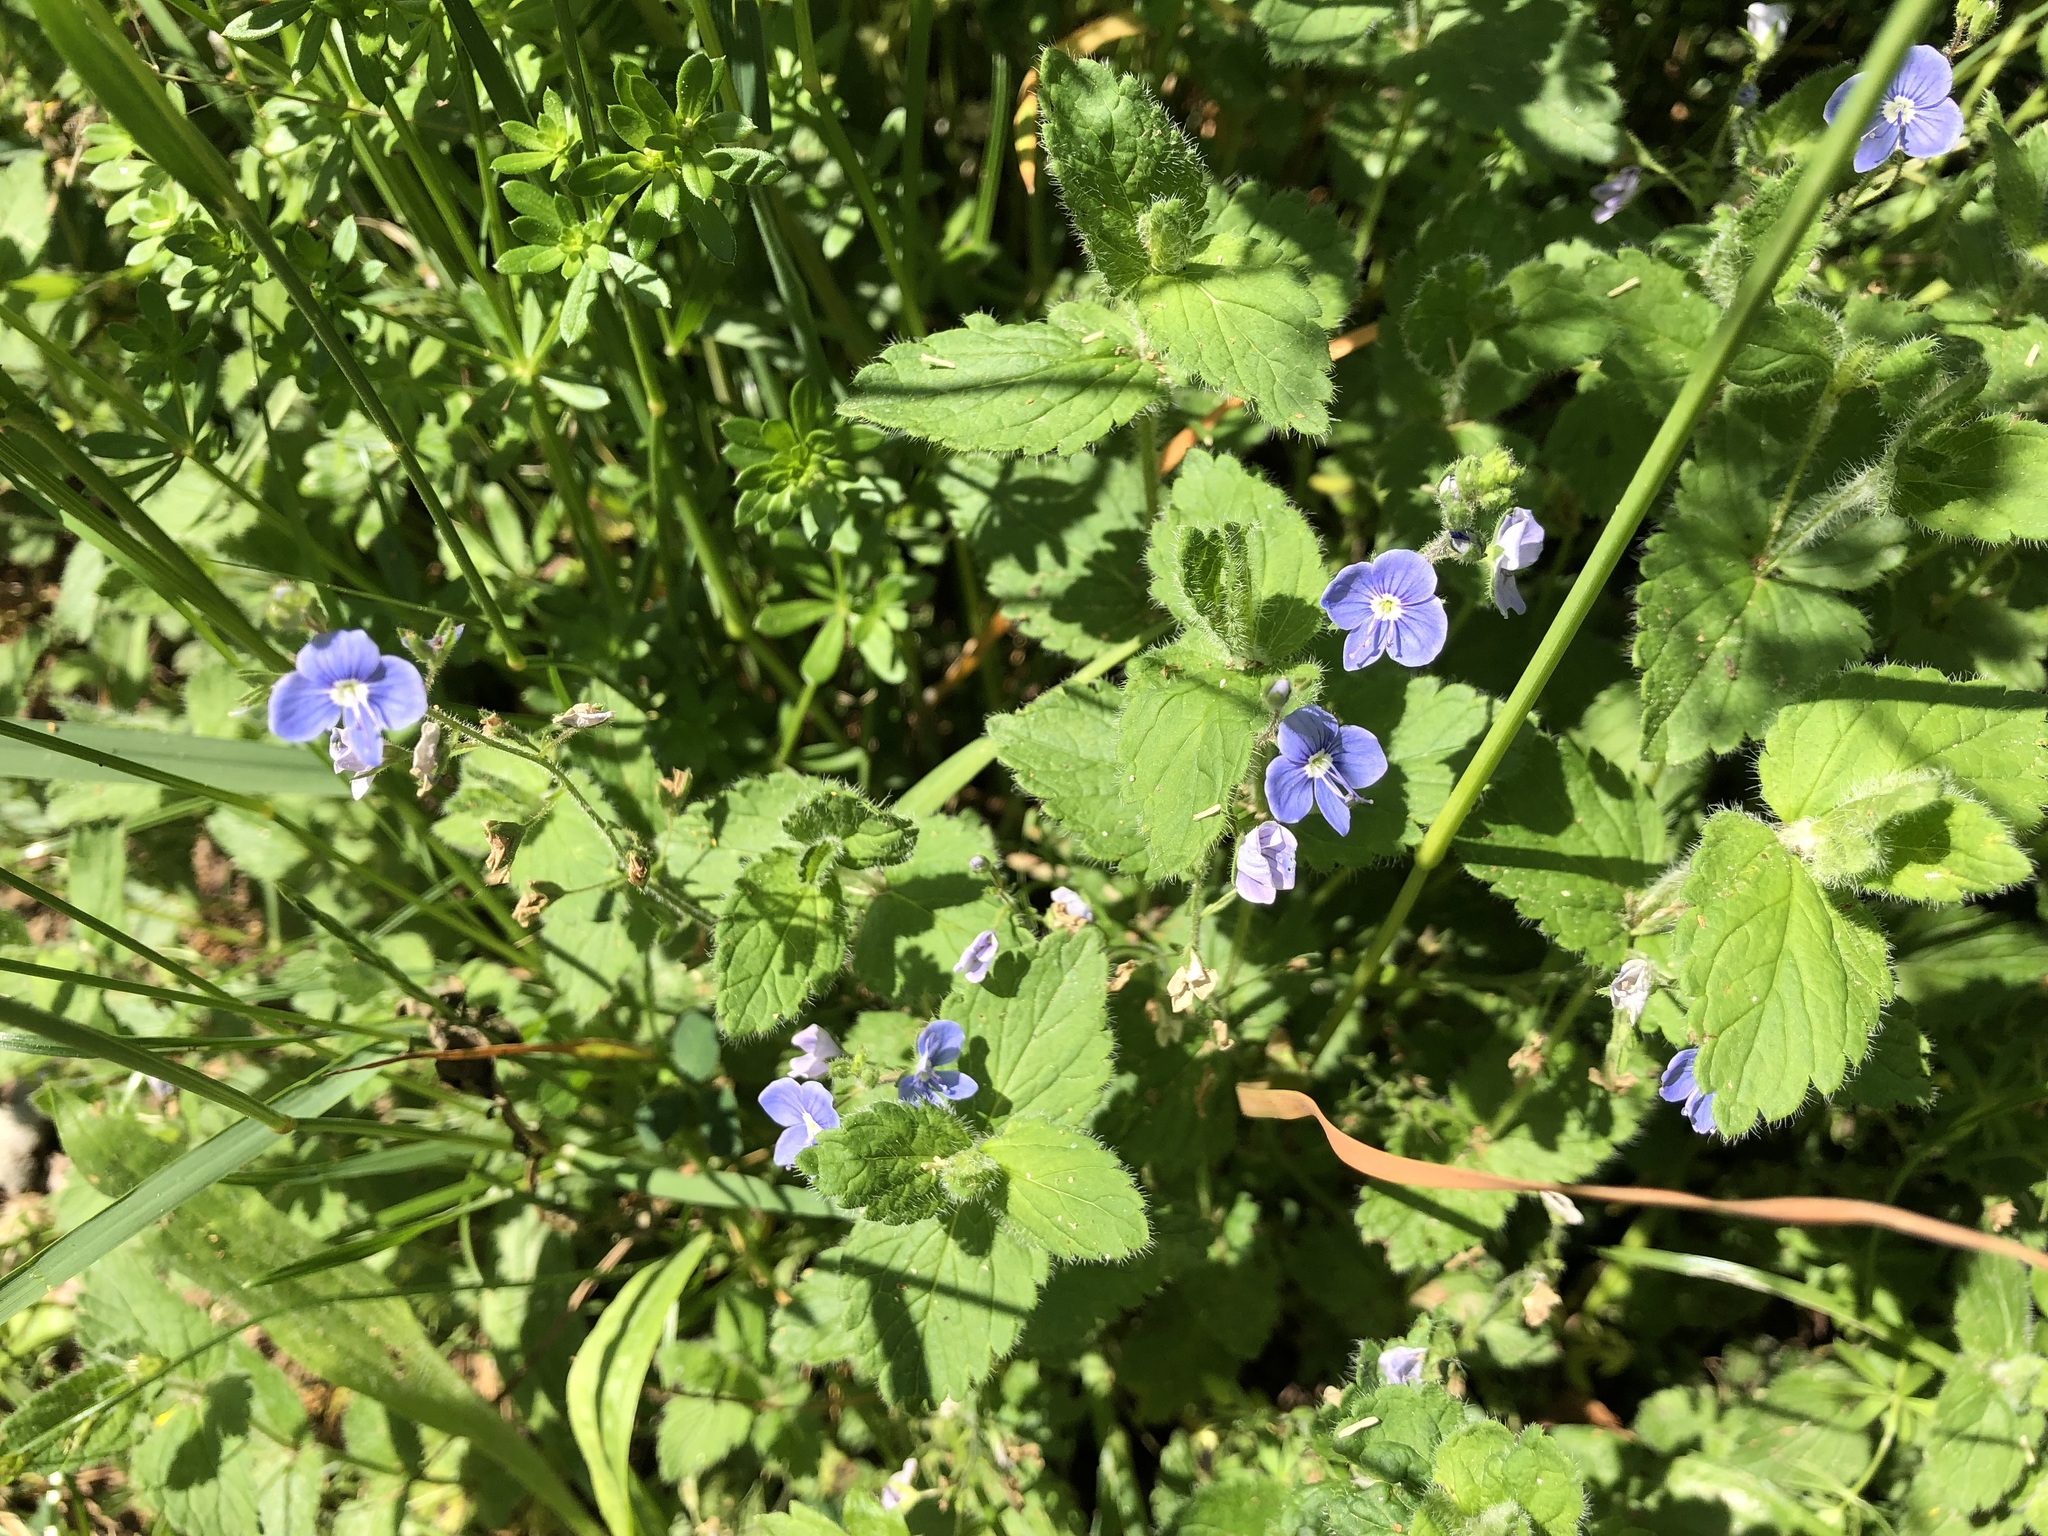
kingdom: Plantae
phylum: Tracheophyta
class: Magnoliopsida
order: Lamiales
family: Plantaginaceae
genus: Veronica
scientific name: Veronica chamaedrys
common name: Germander speedwell
